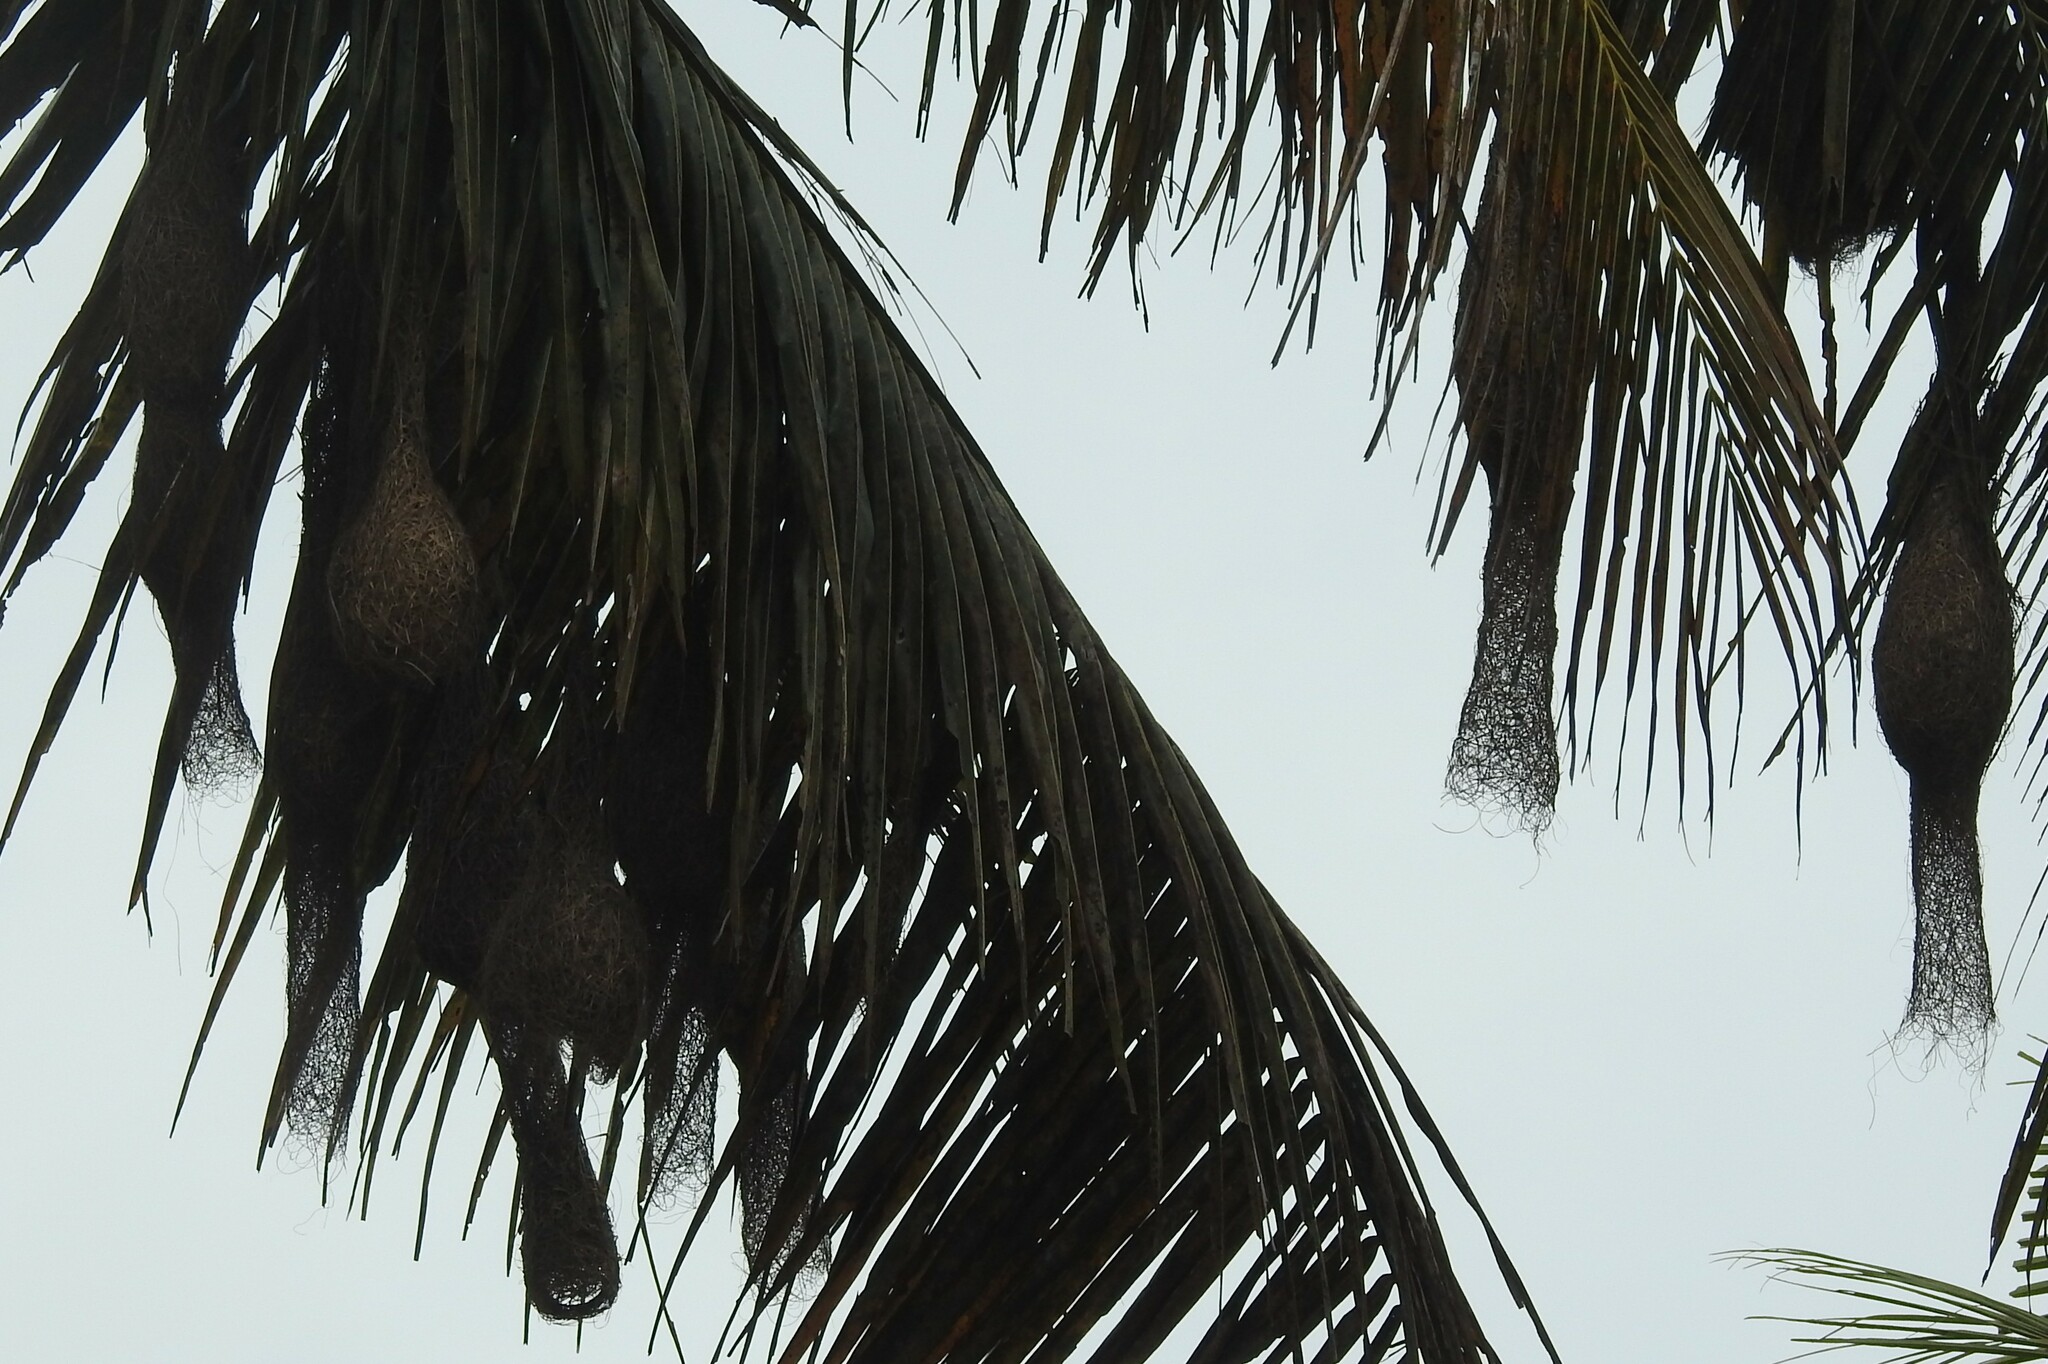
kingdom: Animalia
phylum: Chordata
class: Aves
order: Passeriformes
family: Ploceidae
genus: Ploceus
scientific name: Ploceus philippinus
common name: Baya weaver
